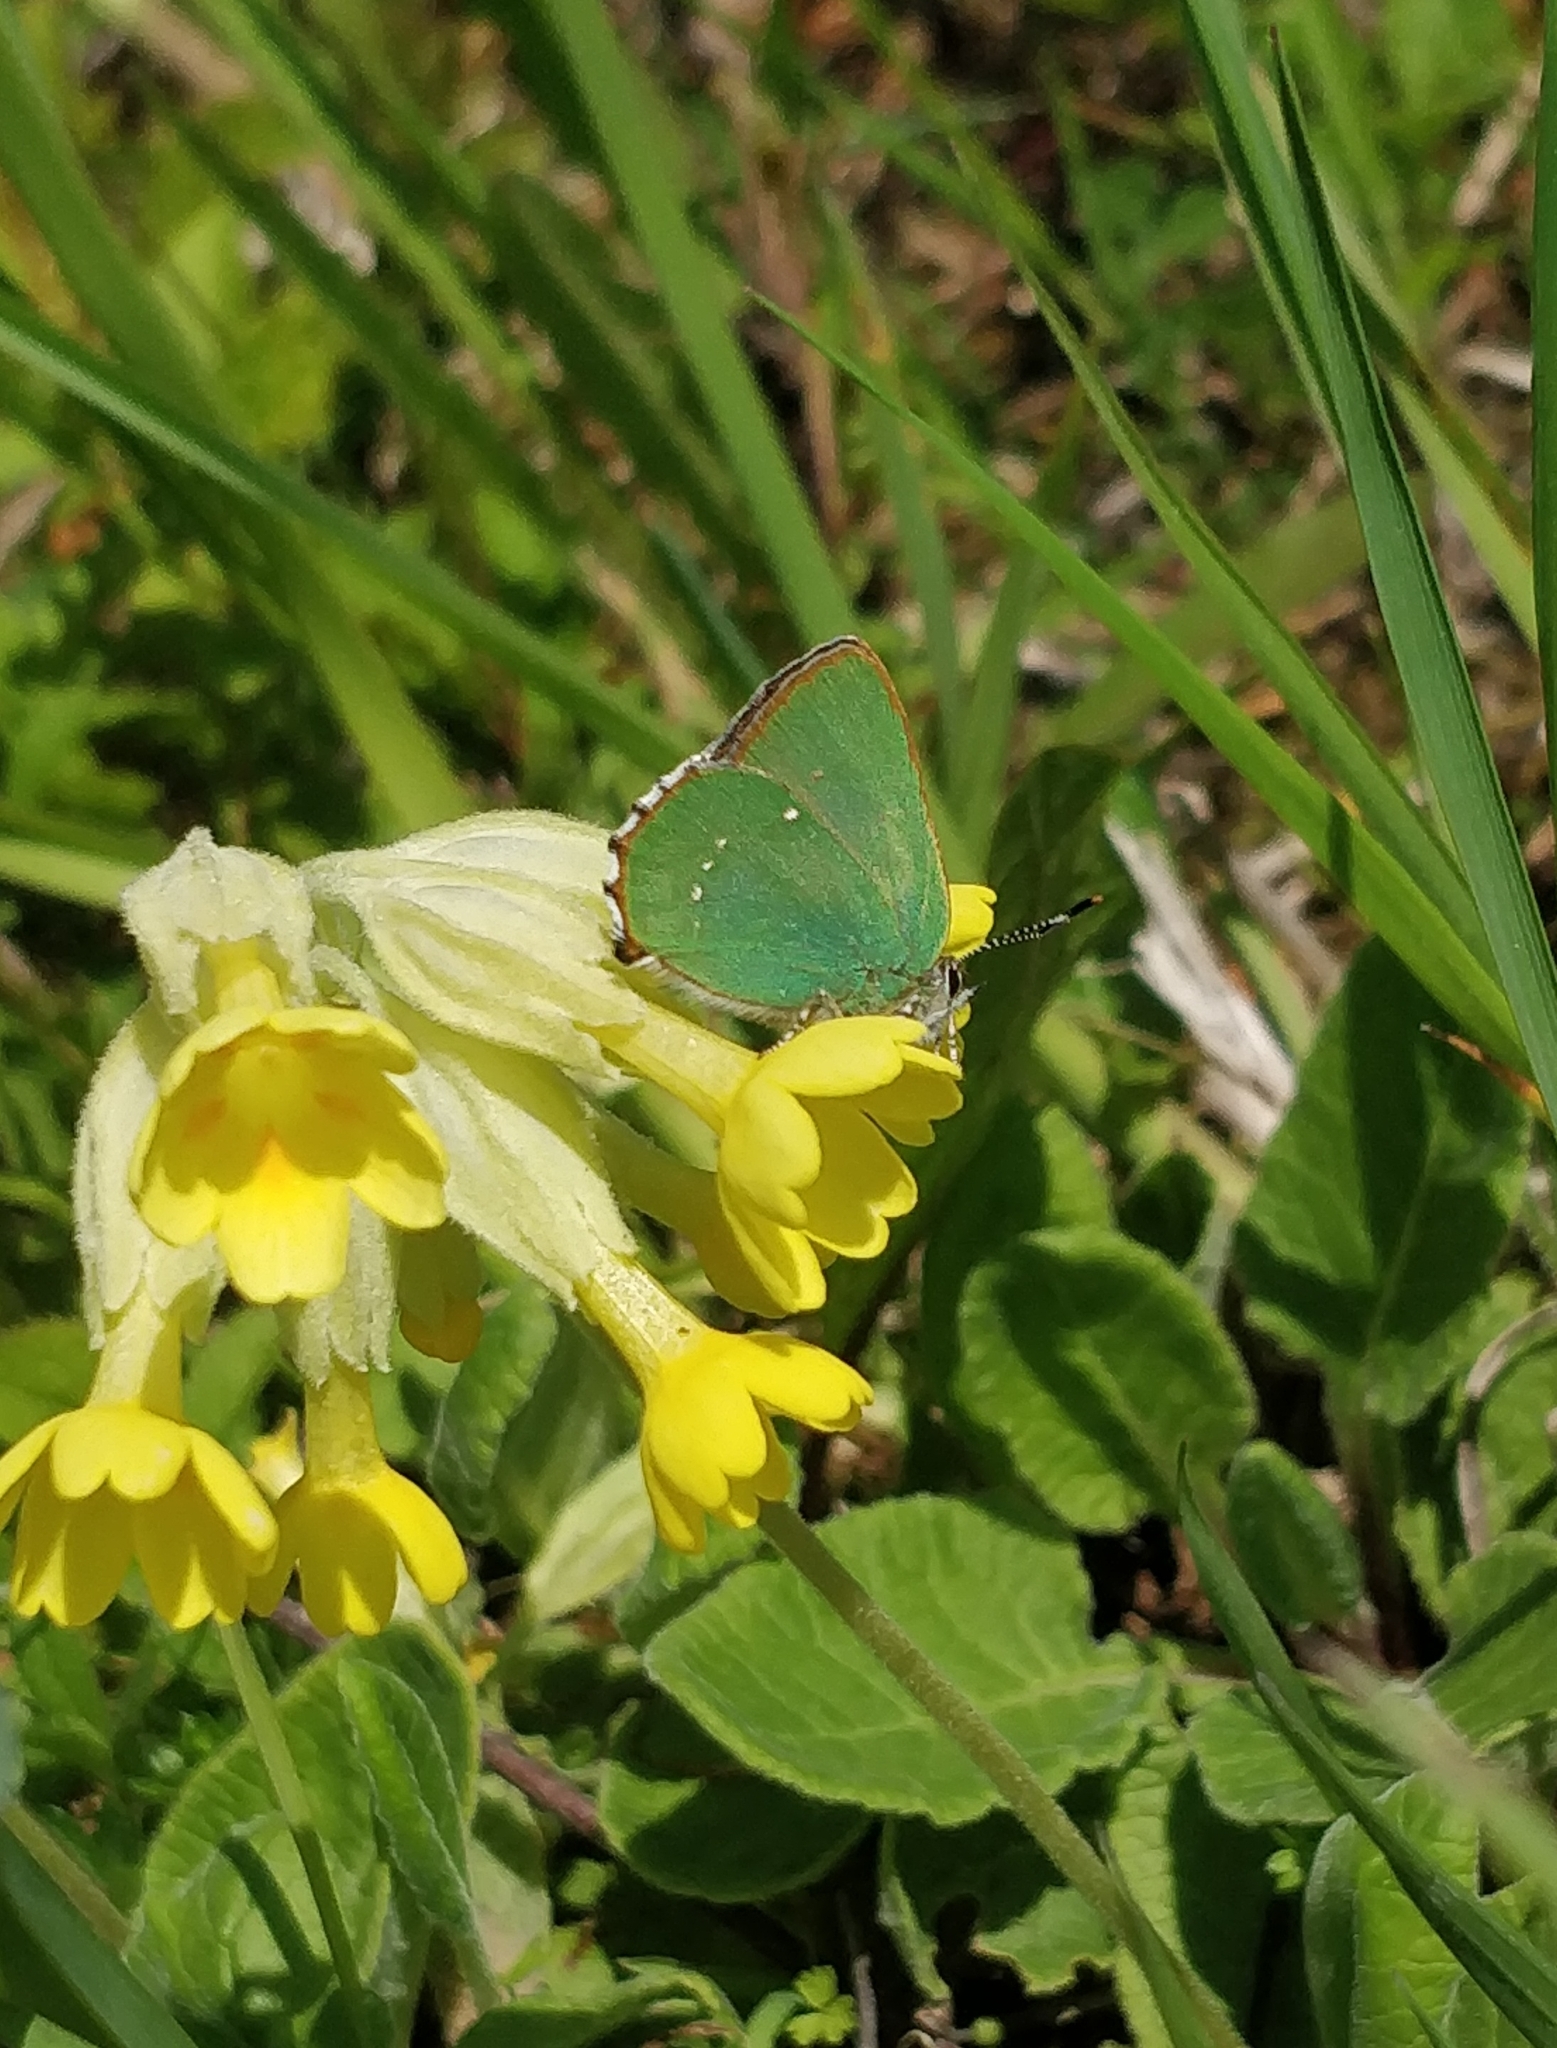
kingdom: Animalia
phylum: Arthropoda
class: Insecta
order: Lepidoptera
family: Lycaenidae
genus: Callophrys
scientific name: Callophrys rubi
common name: Green hairstreak
